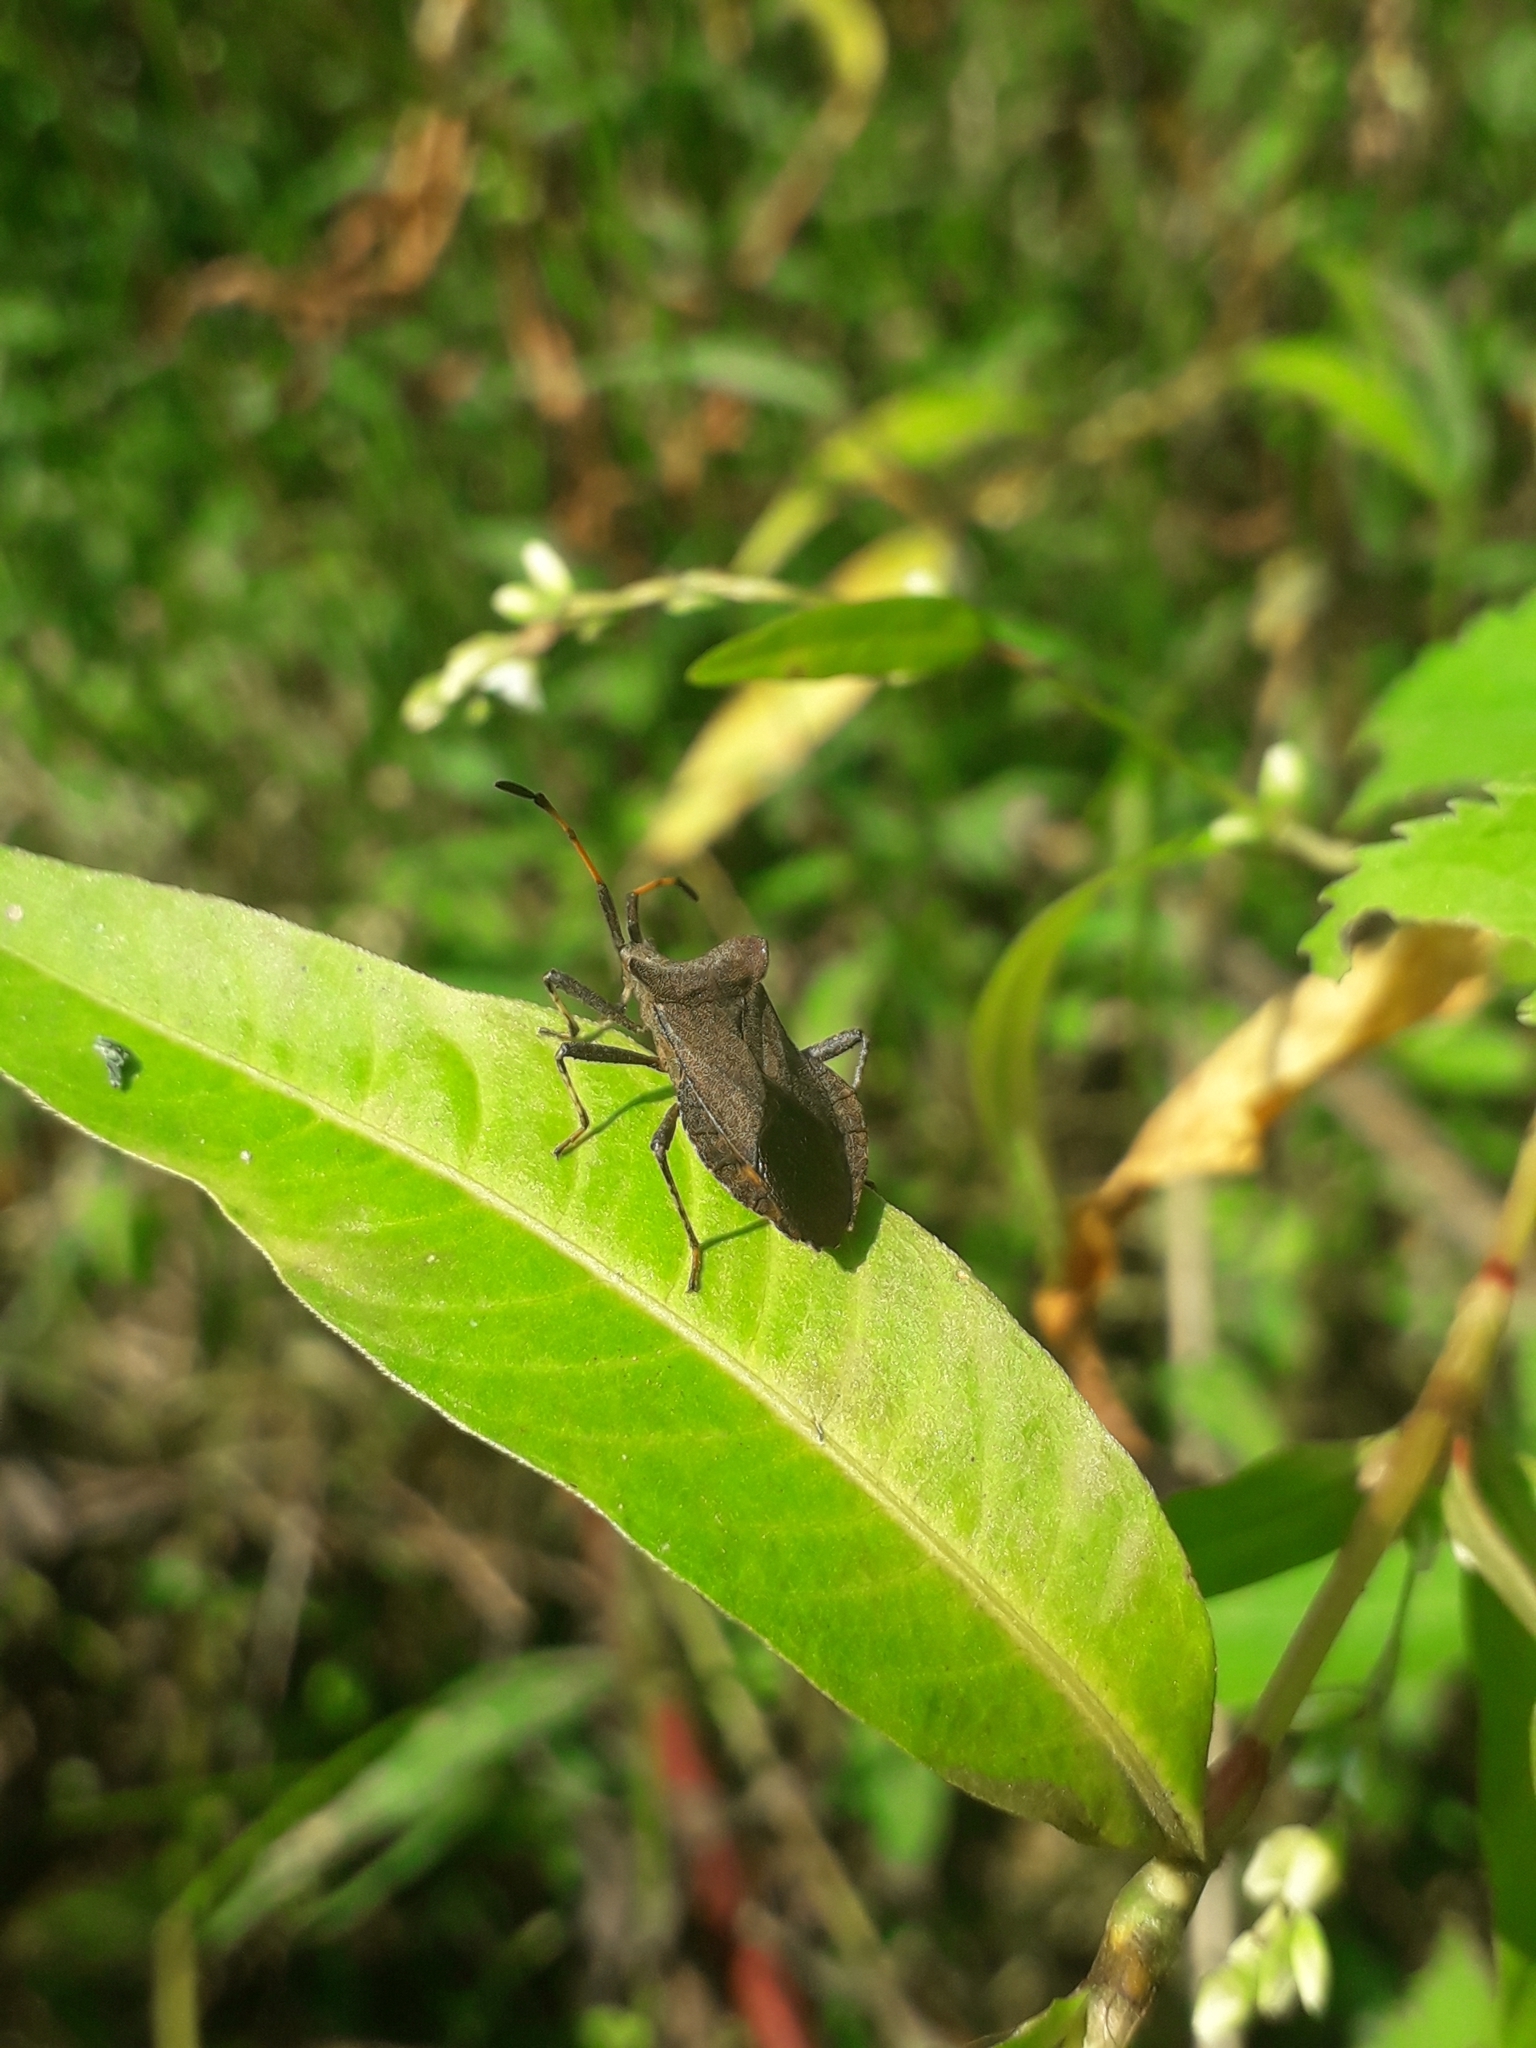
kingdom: Animalia
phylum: Arthropoda
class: Insecta
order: Hemiptera
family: Coreidae
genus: Coreus
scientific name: Coreus marginatus
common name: Dock bug
